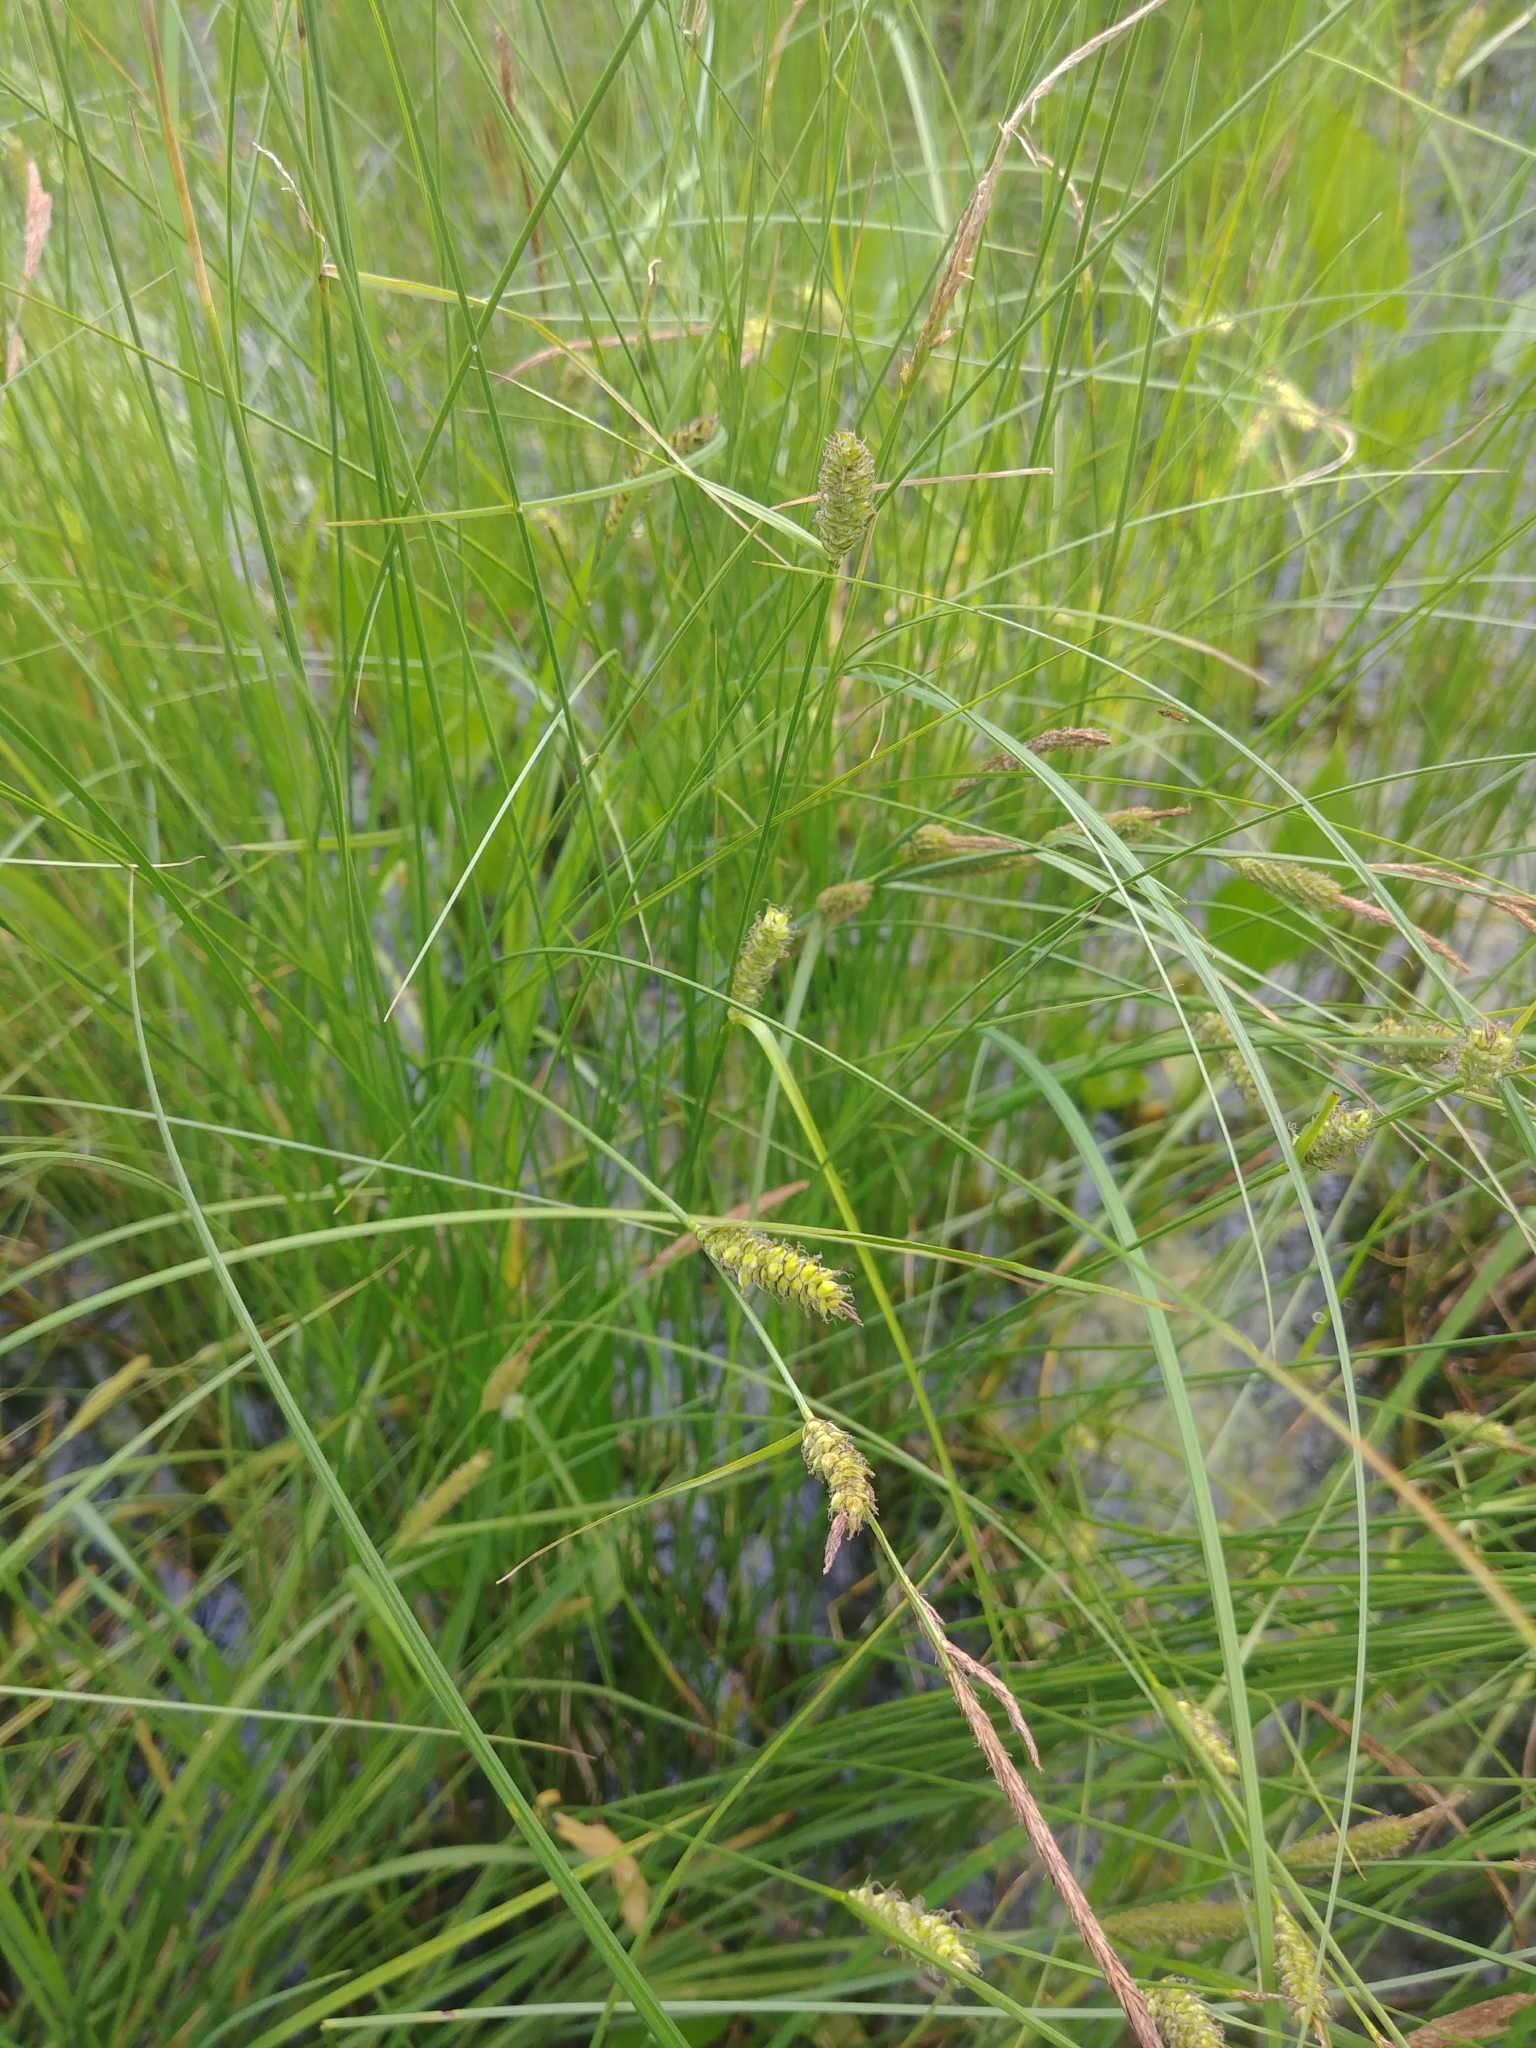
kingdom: Plantae
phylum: Tracheophyta
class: Liliopsida
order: Poales
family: Cyperaceae
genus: Carex
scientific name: Carex lasiocarpa
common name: Slender sedge
